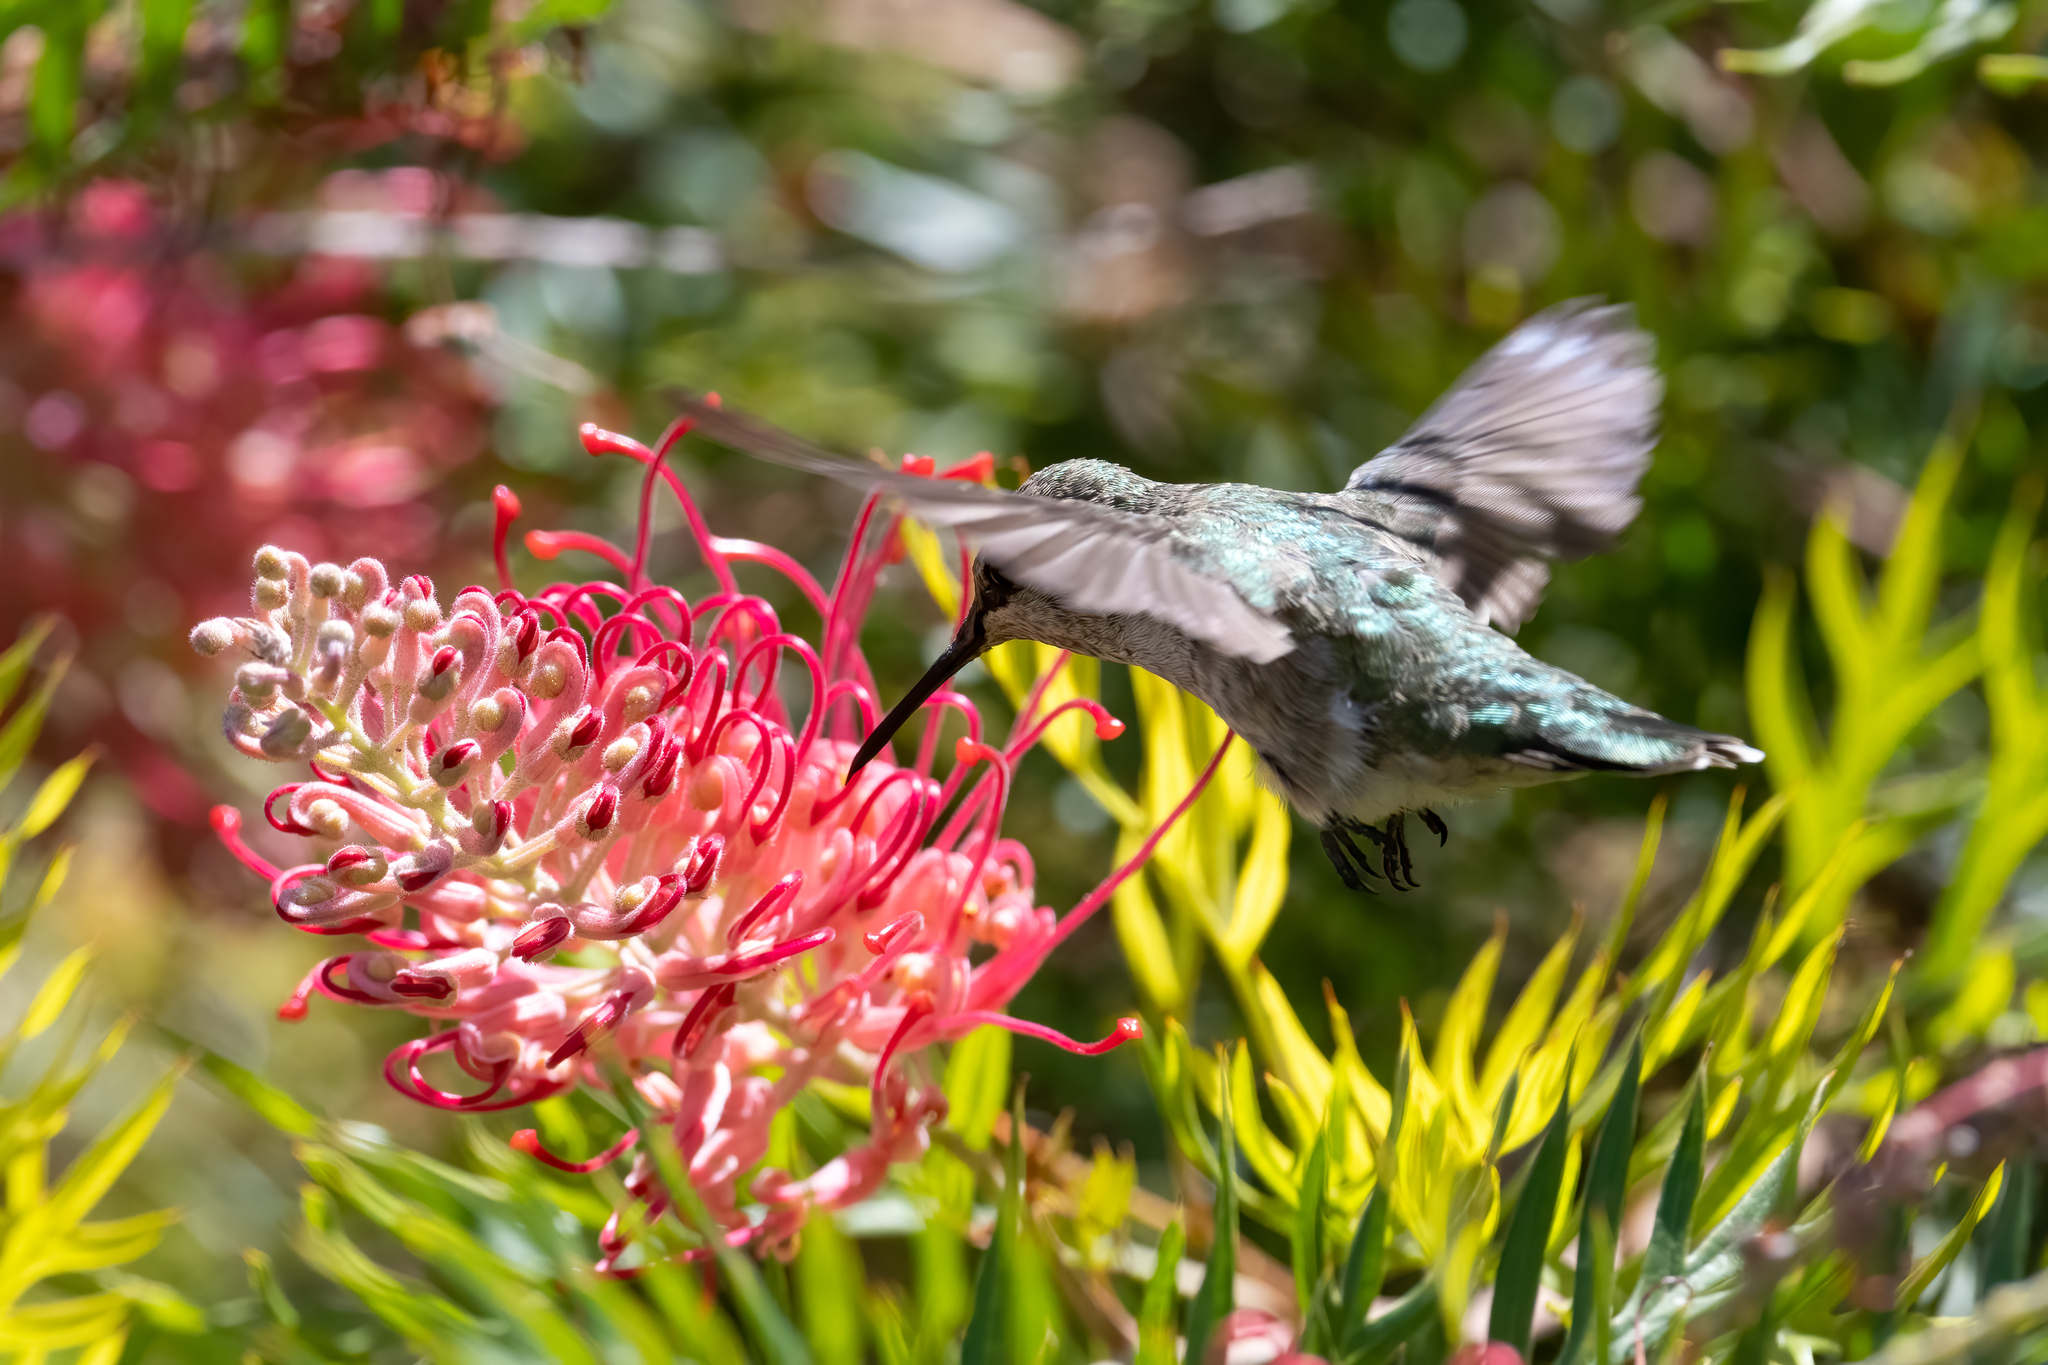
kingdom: Animalia
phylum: Chordata
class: Aves
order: Apodiformes
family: Trochilidae
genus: Calypte
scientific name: Calypte anna
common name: Anna's hummingbird
